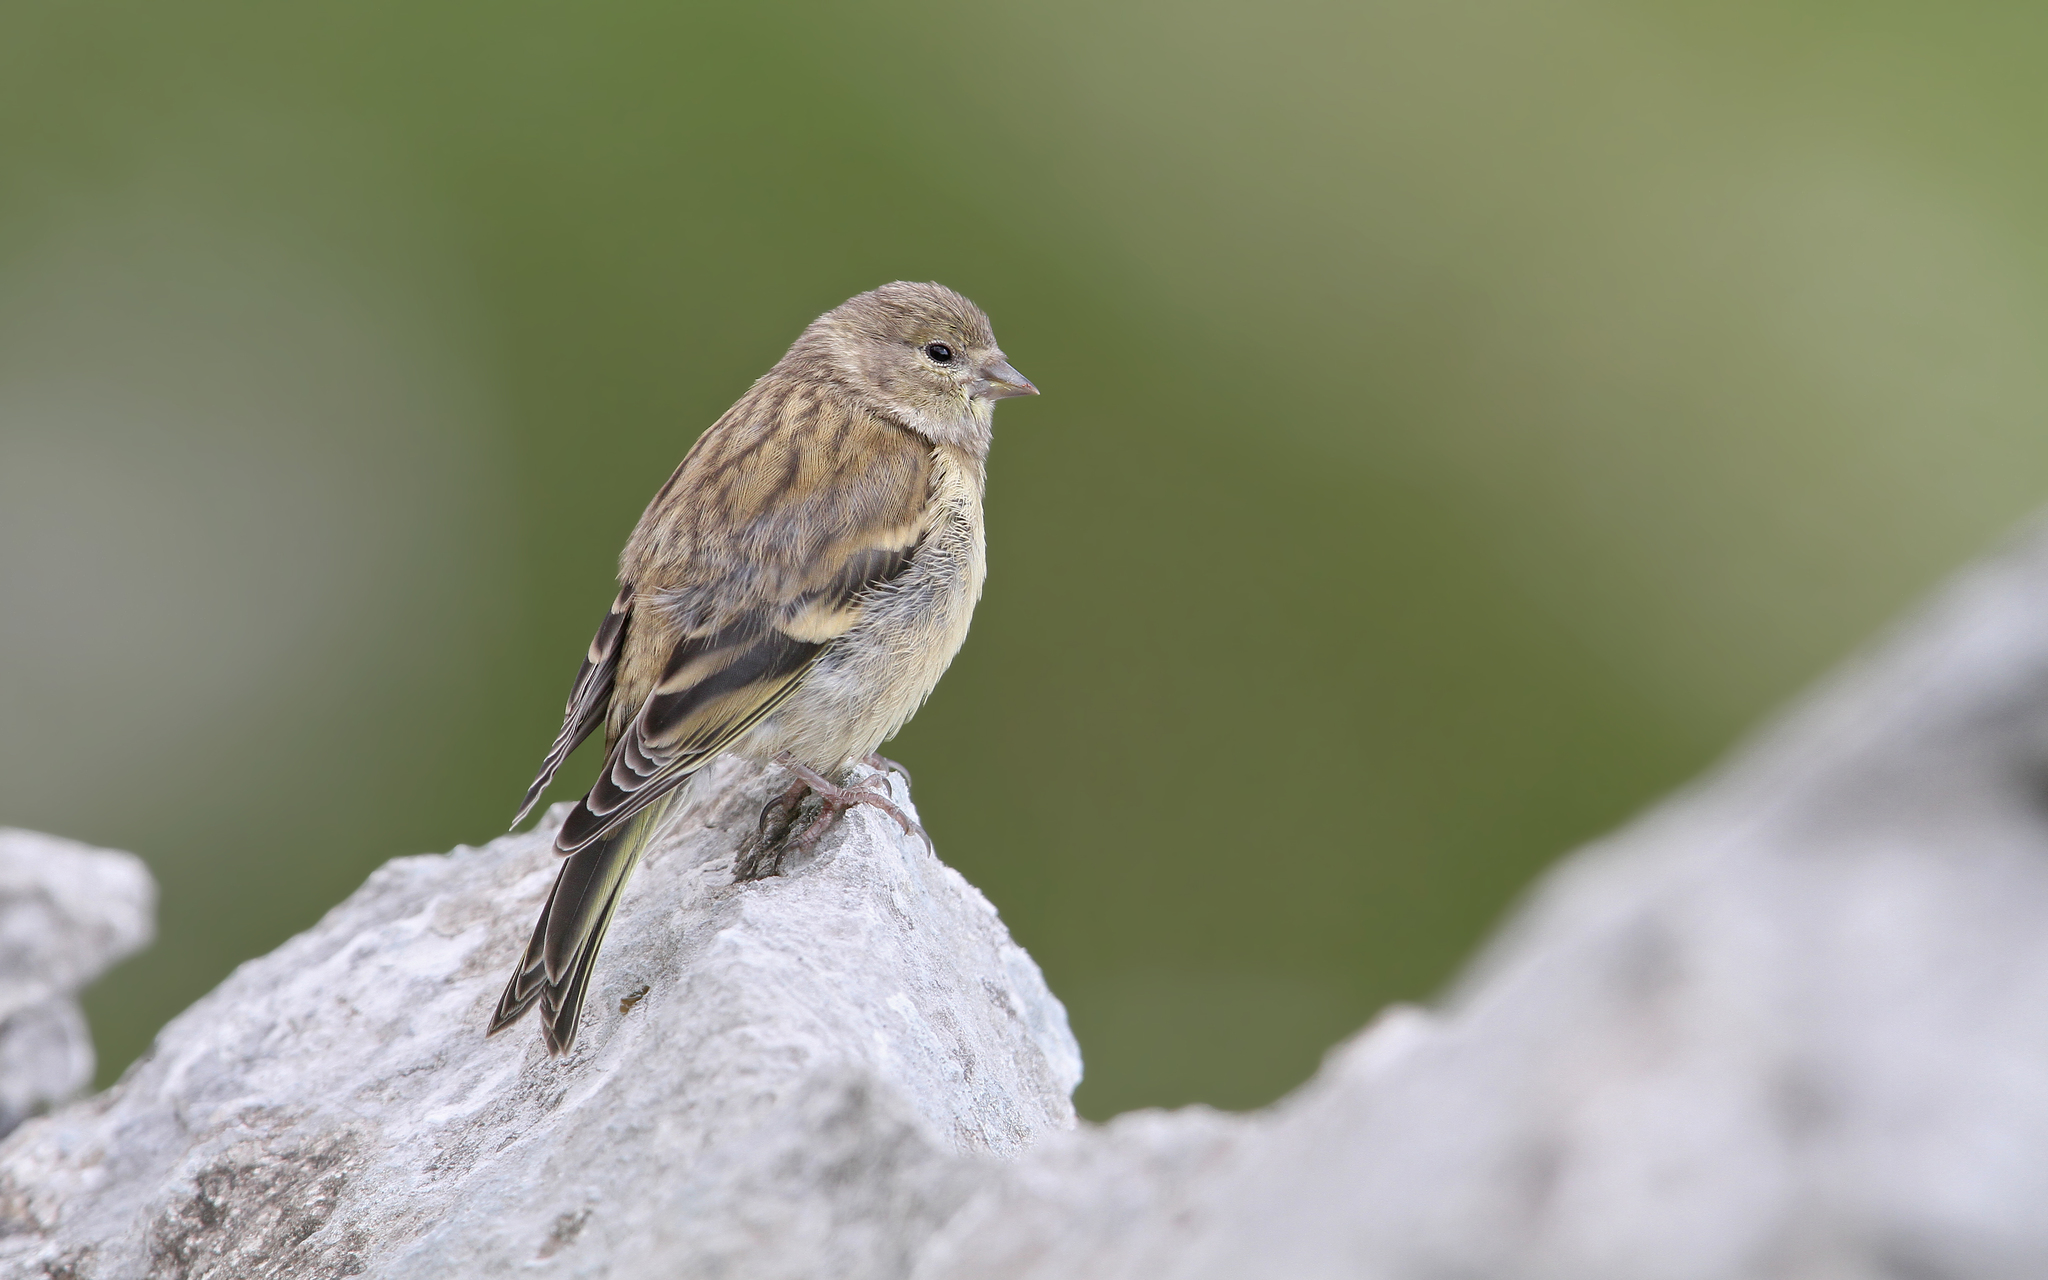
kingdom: Animalia
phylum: Chordata
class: Aves
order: Passeriformes
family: Fringillidae
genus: Carduelis
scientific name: Carduelis citrinella
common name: Citril finch
